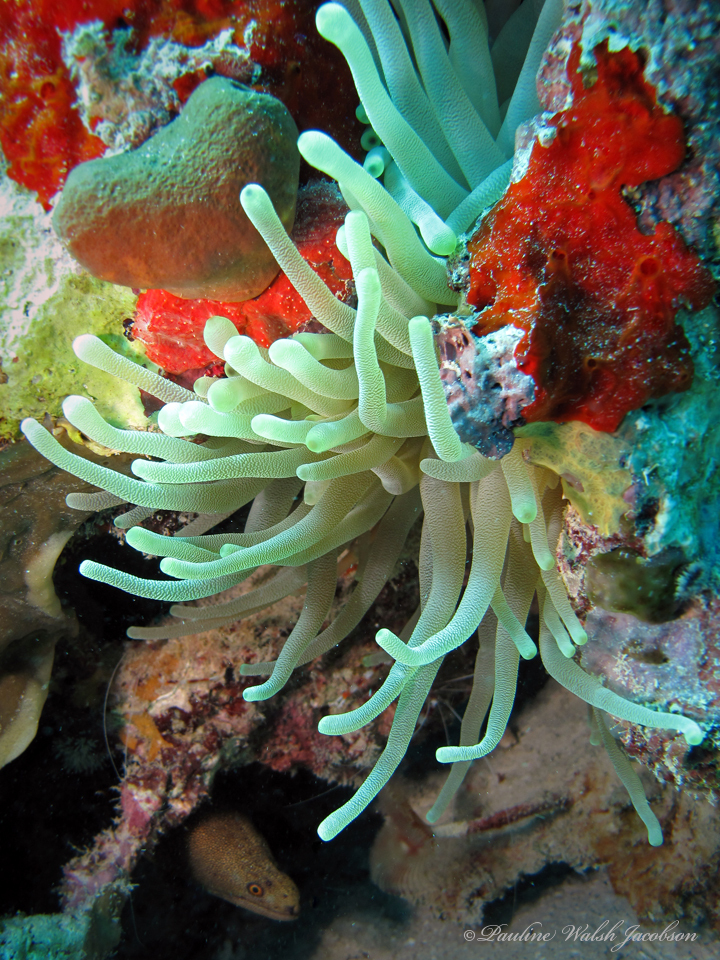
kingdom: Animalia
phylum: Cnidaria
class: Anthozoa
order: Actiniaria
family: Actiniidae
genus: Condylactis
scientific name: Condylactis gigantea
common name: Giant caribbean anemone
